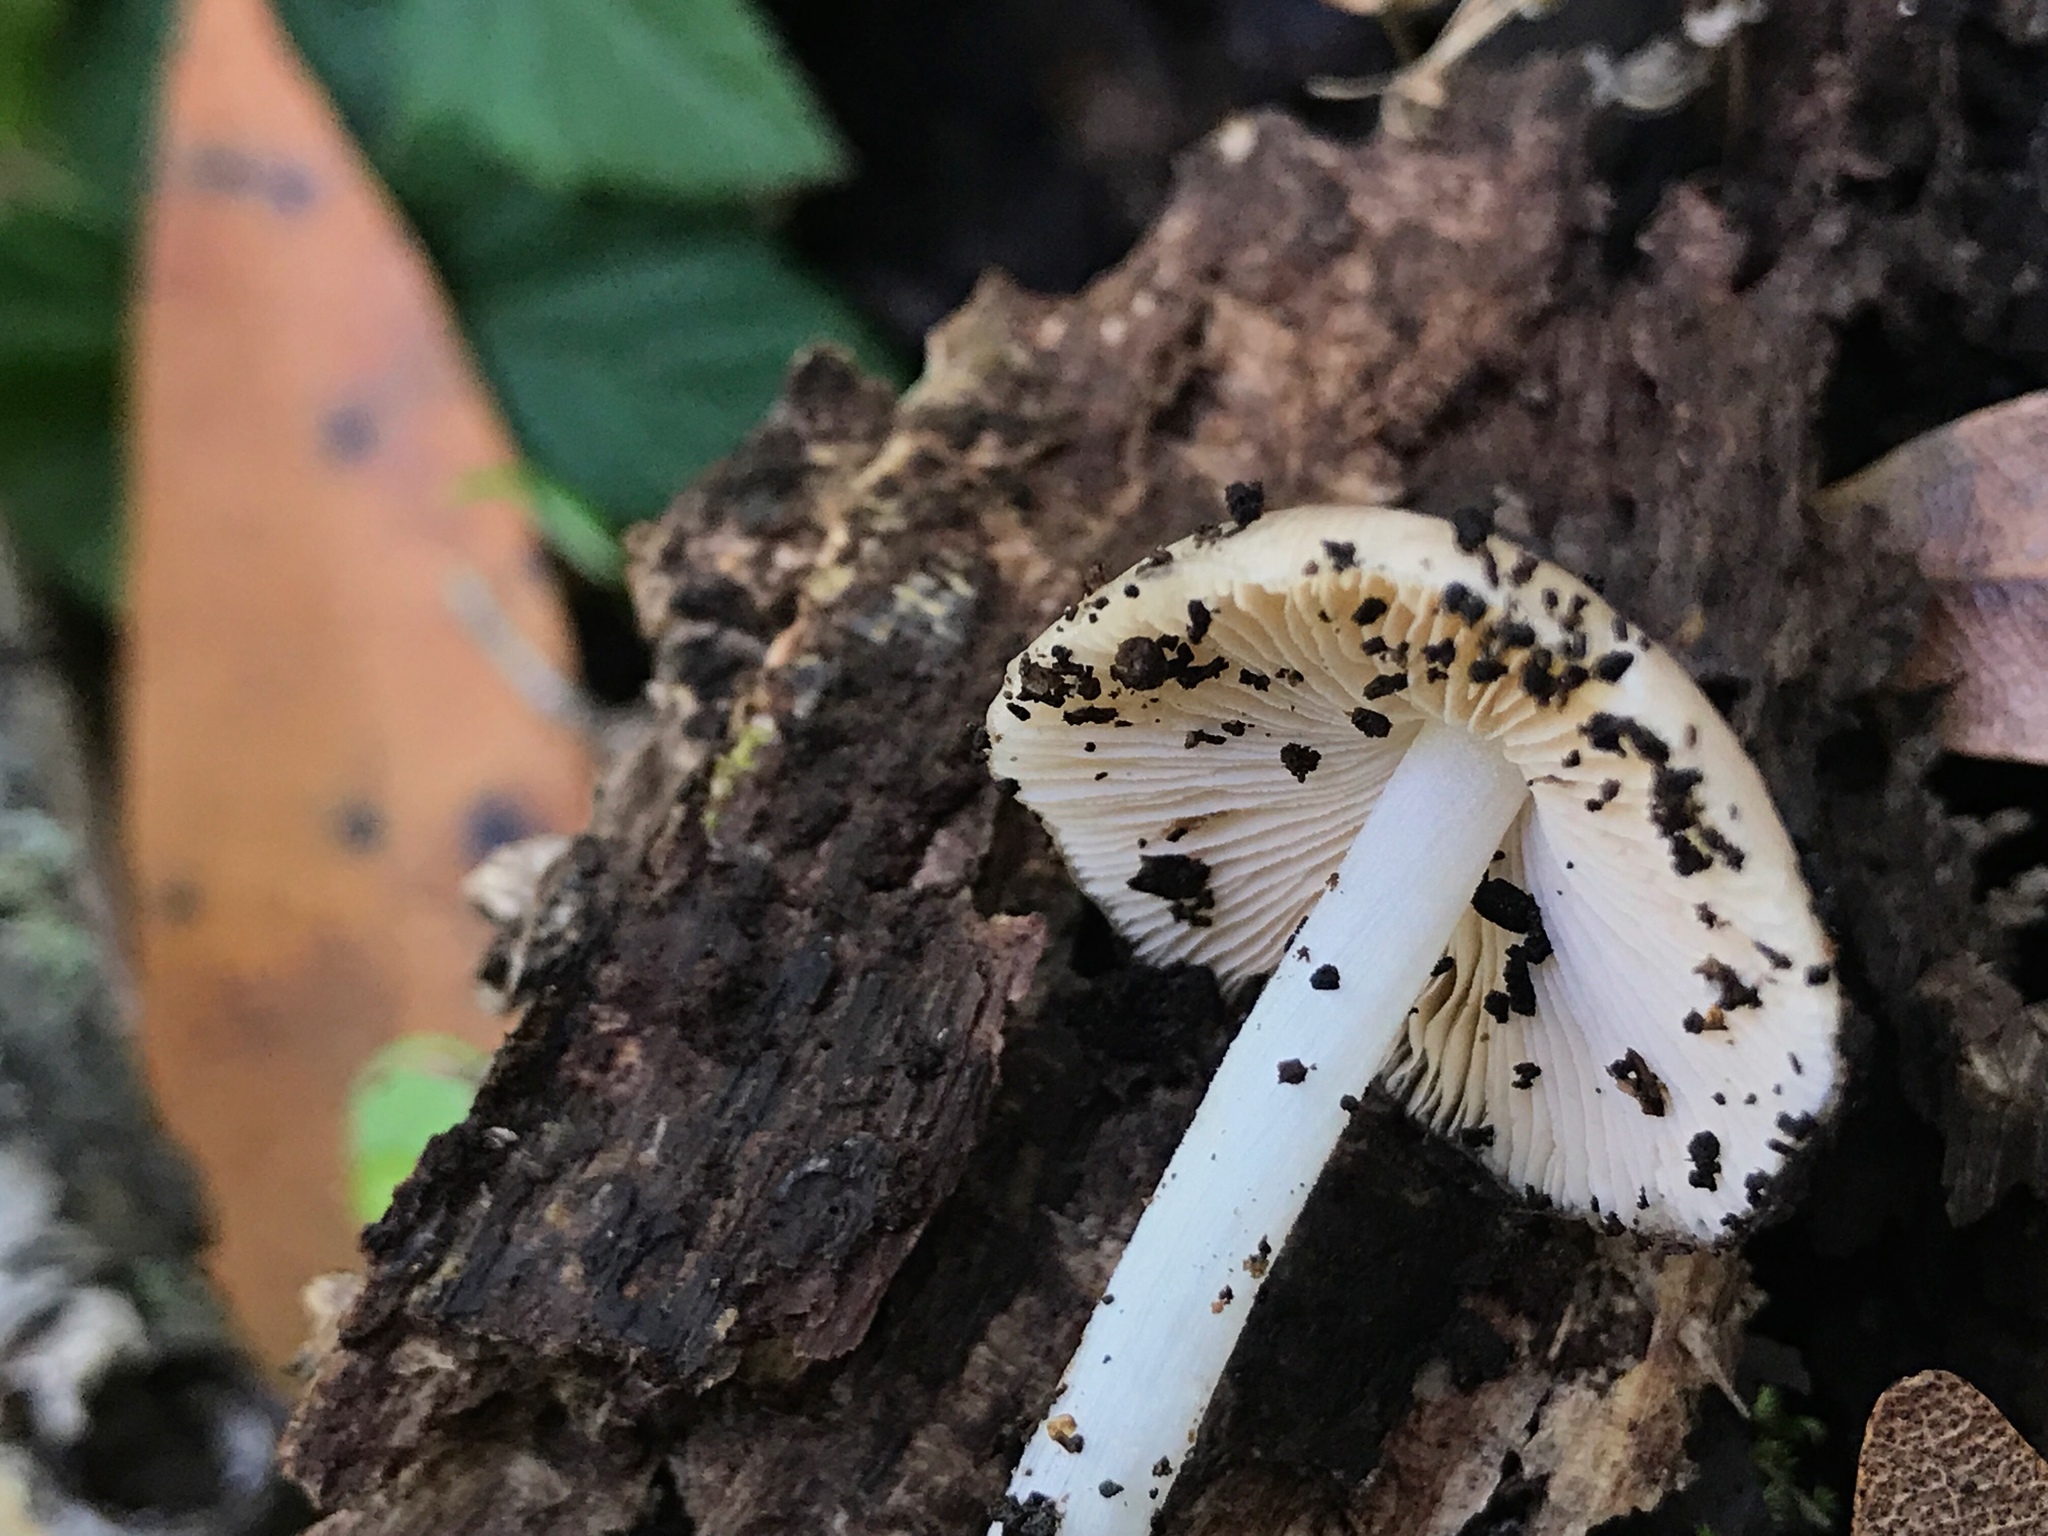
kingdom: Fungi
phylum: Basidiomycota
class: Agaricomycetes
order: Agaricales
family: Bolbitiaceae
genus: Bolbitius
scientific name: Bolbitius reticulatus
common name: Netted fieldcap
